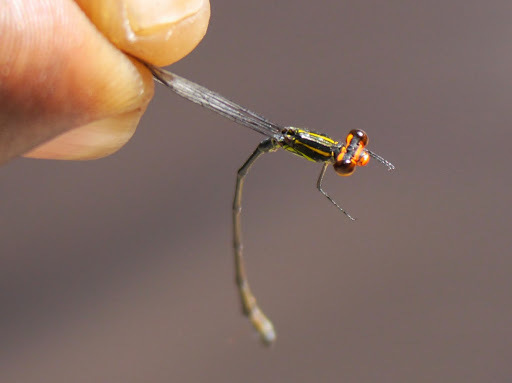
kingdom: Animalia
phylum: Arthropoda
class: Insecta
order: Odonata
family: Coenagrionidae
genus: Pseudagrion
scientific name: Pseudagrion hageni
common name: Painted sprite
